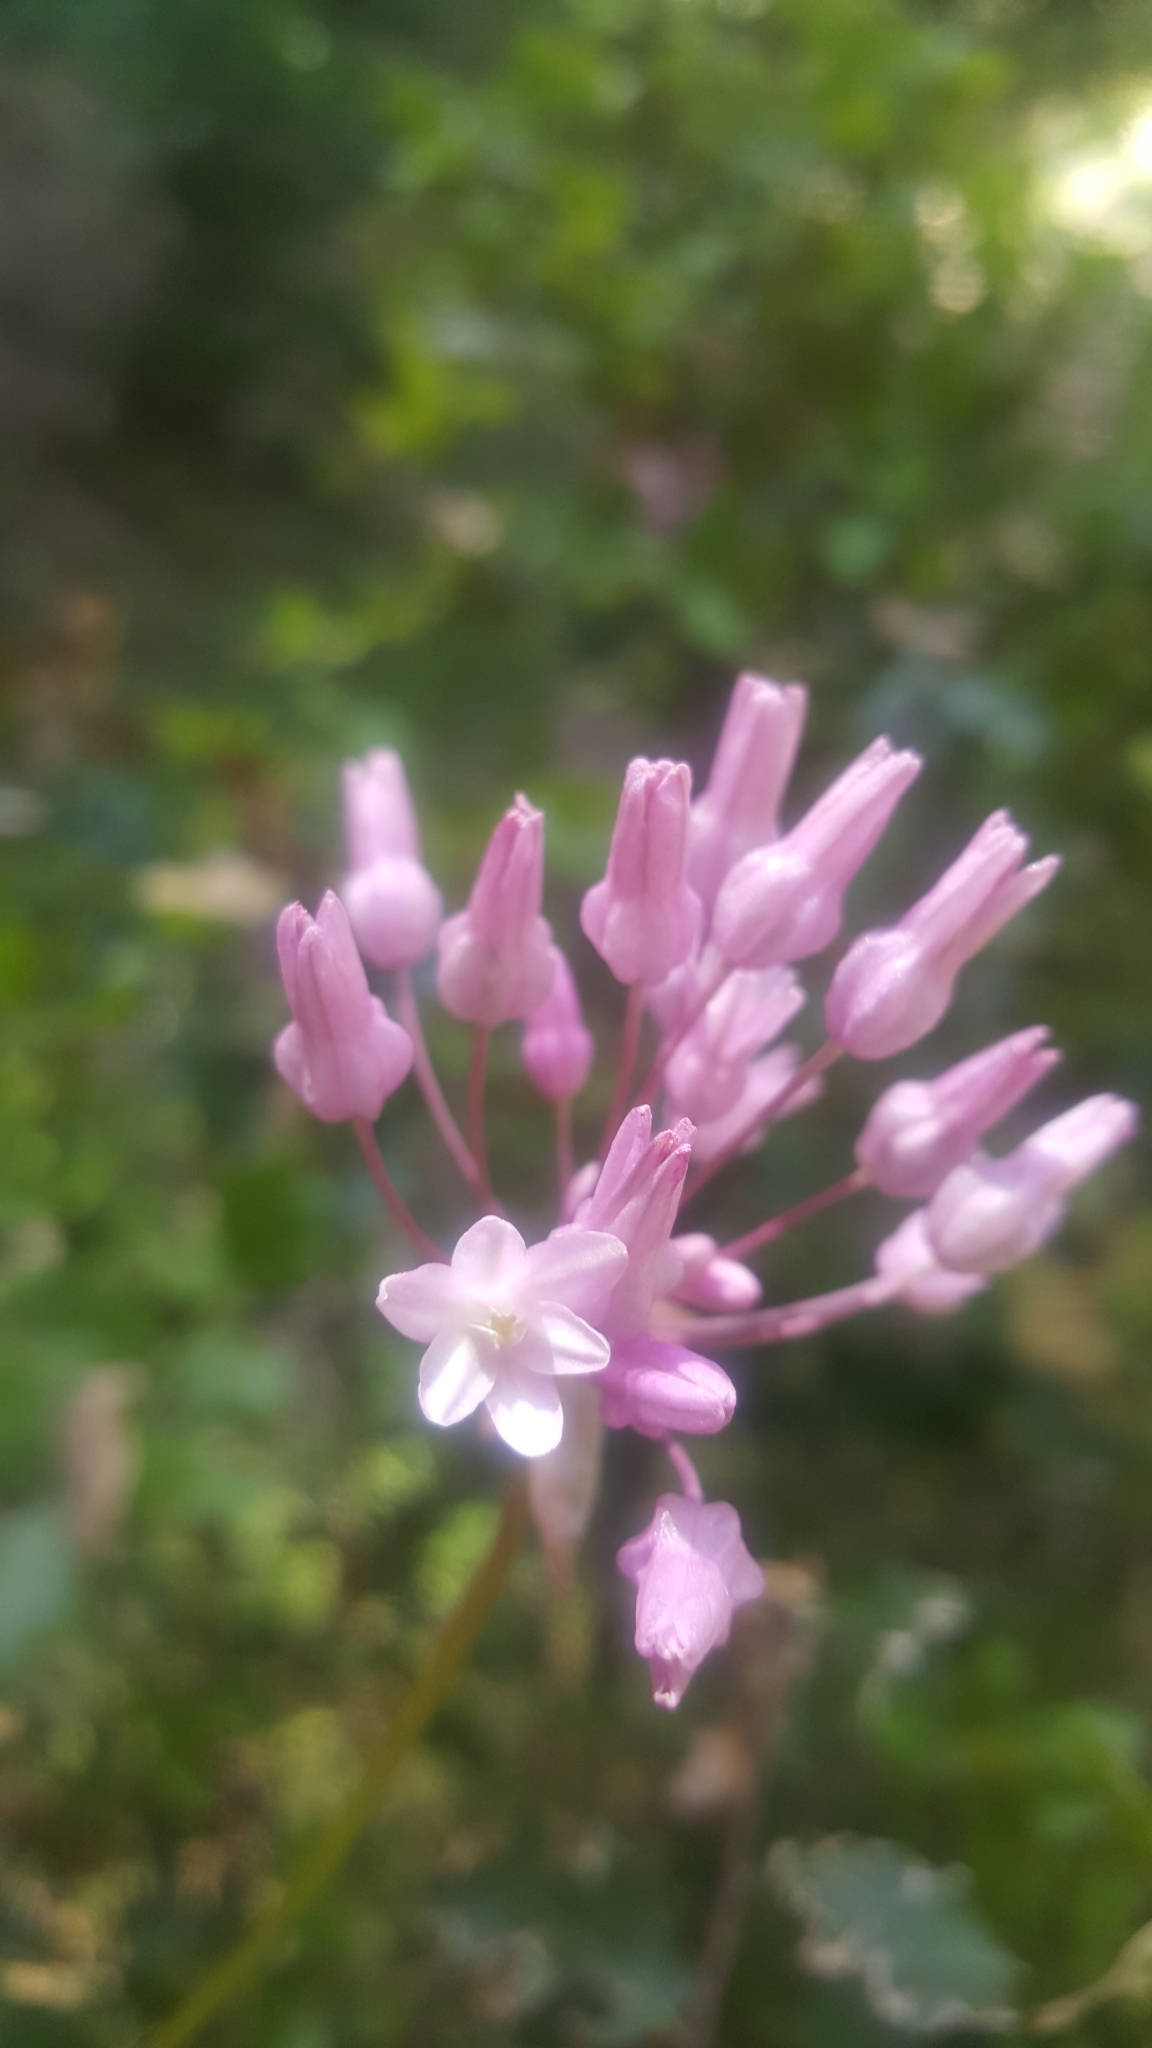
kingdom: Plantae
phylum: Tracheophyta
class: Liliopsida
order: Asparagales
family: Asparagaceae
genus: Dichelostemma
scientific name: Dichelostemma volubile
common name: Trining brodiaea
